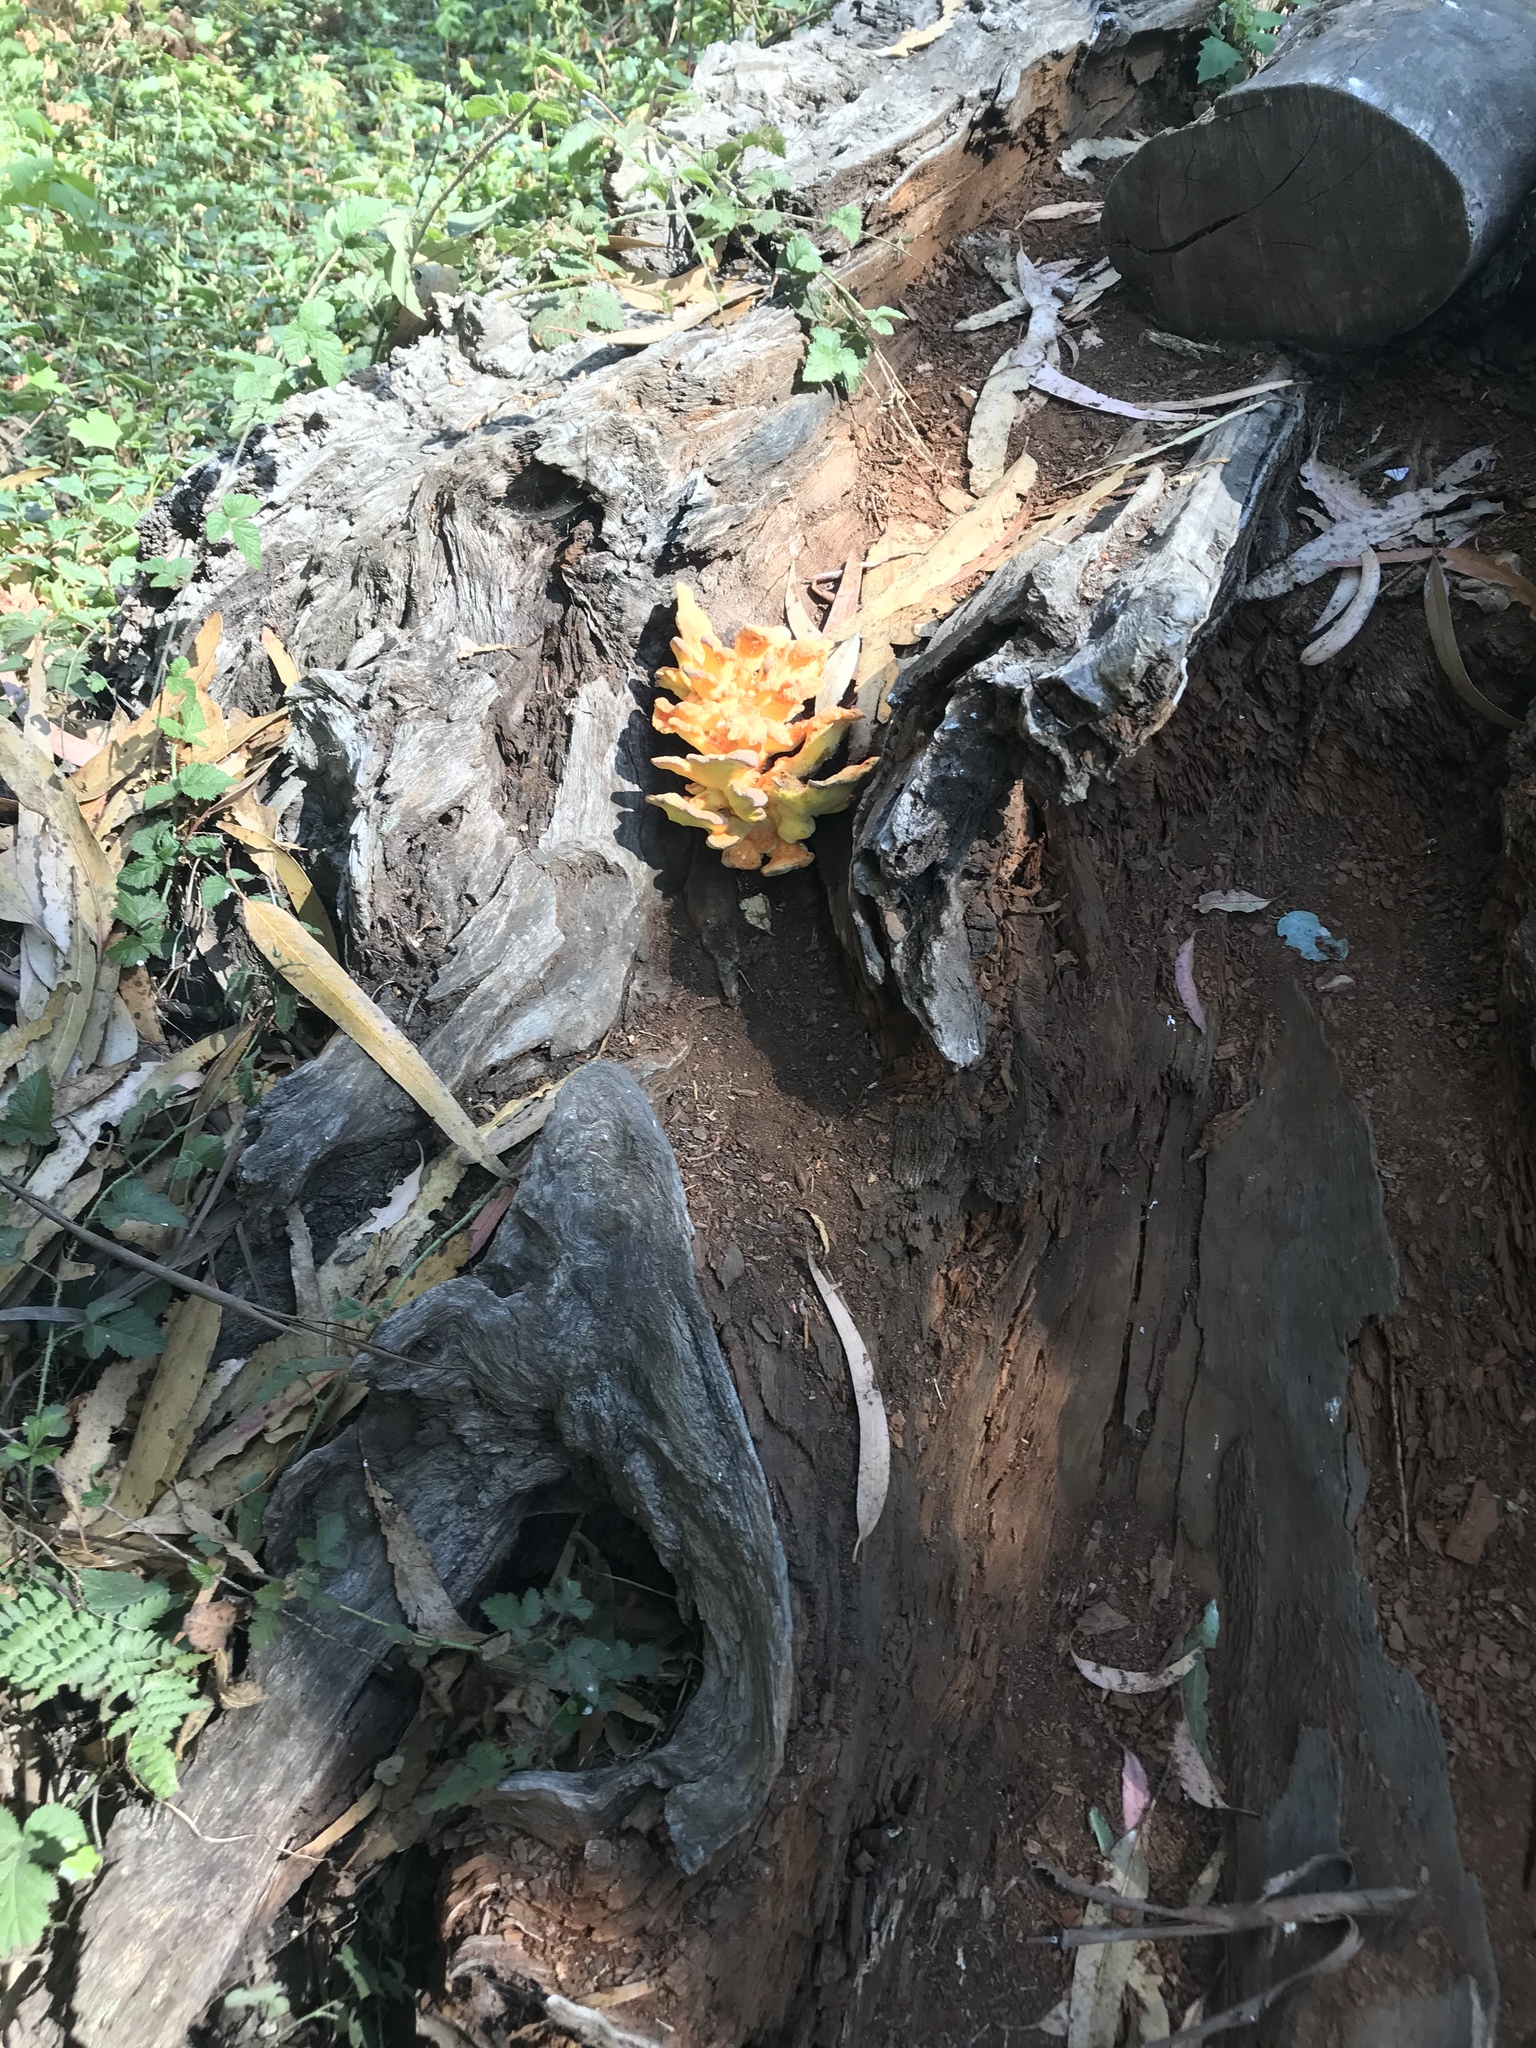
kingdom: Fungi
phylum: Basidiomycota
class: Agaricomycetes
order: Polyporales
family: Laetiporaceae
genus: Laetiporus
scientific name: Laetiporus gilbertsonii
